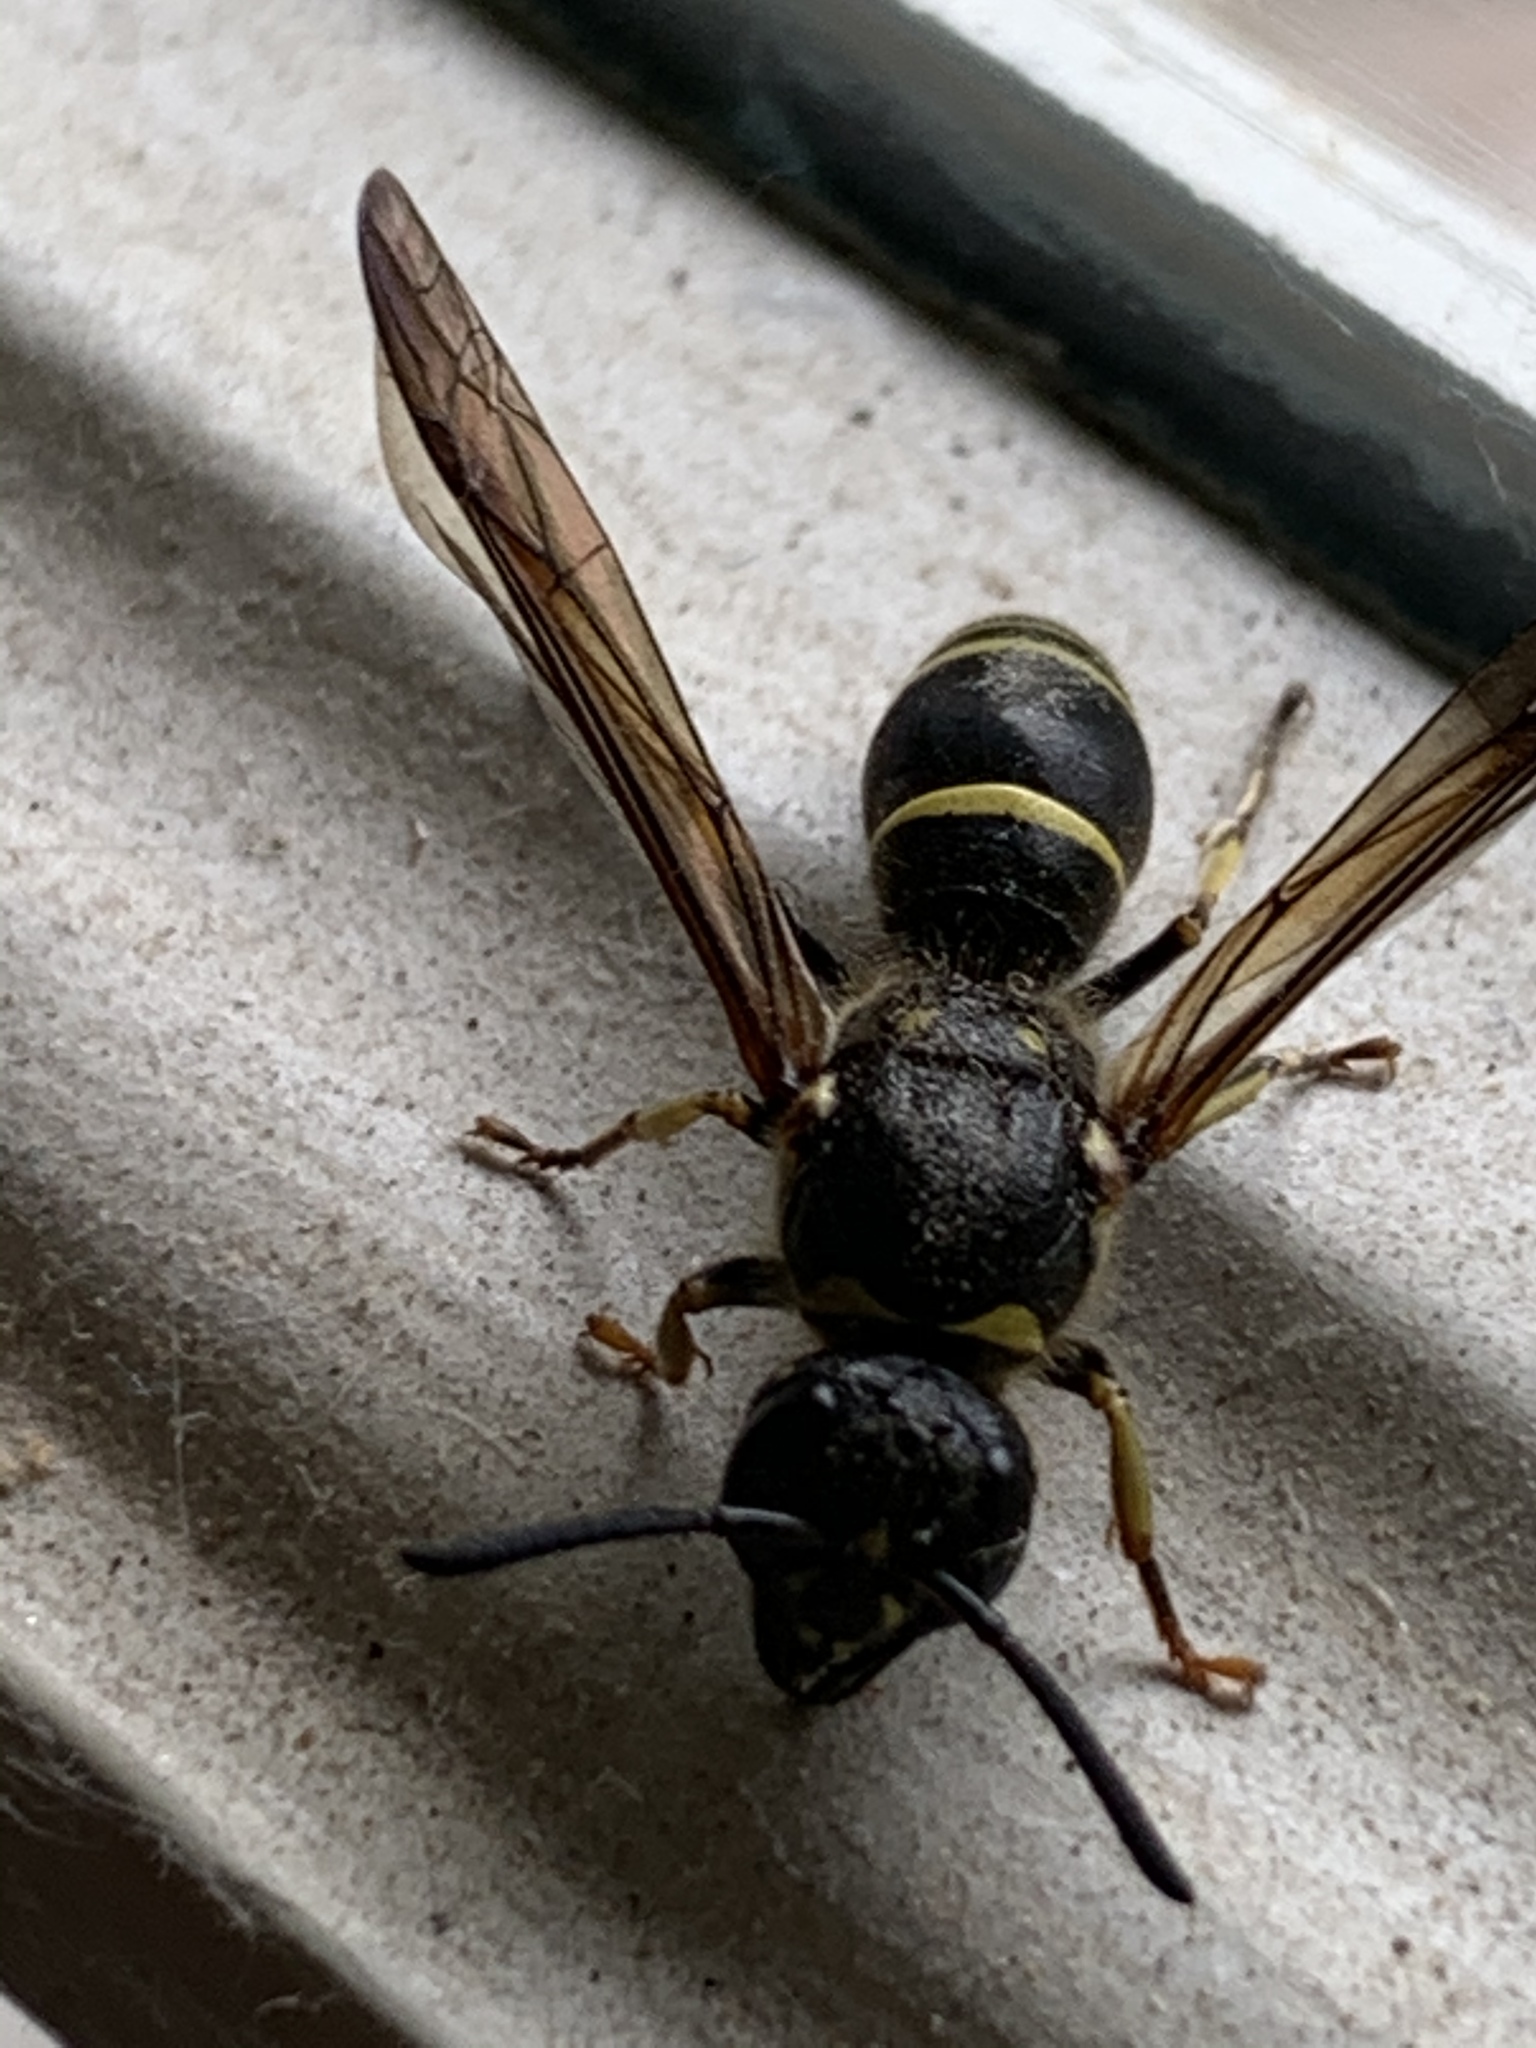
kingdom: Animalia
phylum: Arthropoda
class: Insecta
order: Hymenoptera
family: Vespidae
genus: Ancistrocerus
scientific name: Ancistrocerus
